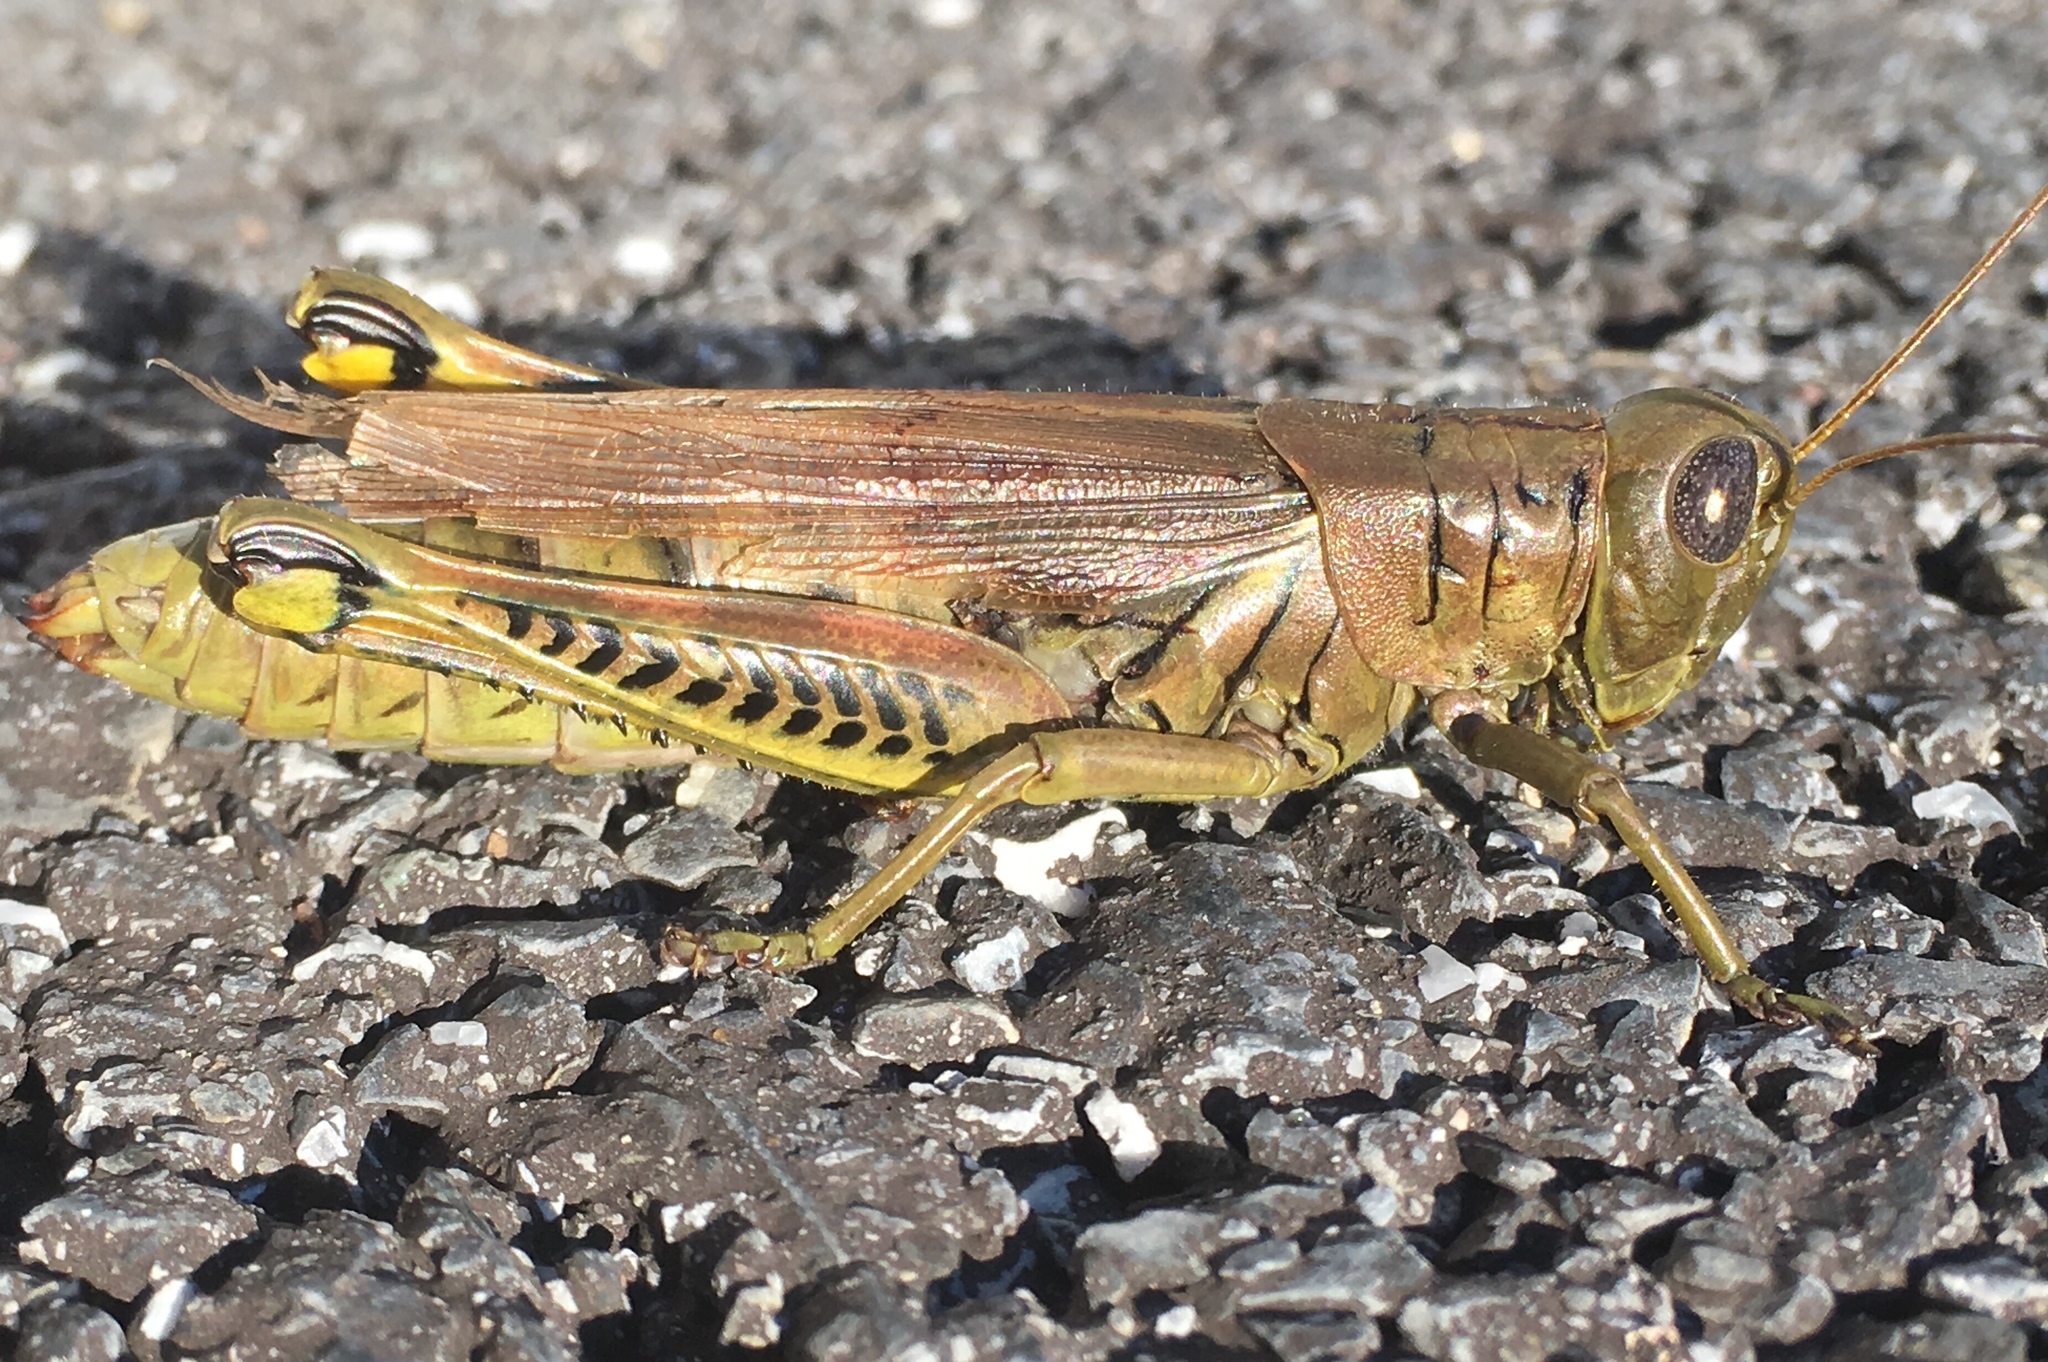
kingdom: Animalia
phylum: Arthropoda
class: Insecta
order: Orthoptera
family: Acrididae
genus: Melanoplus
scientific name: Melanoplus differentialis
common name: Differential grasshopper
